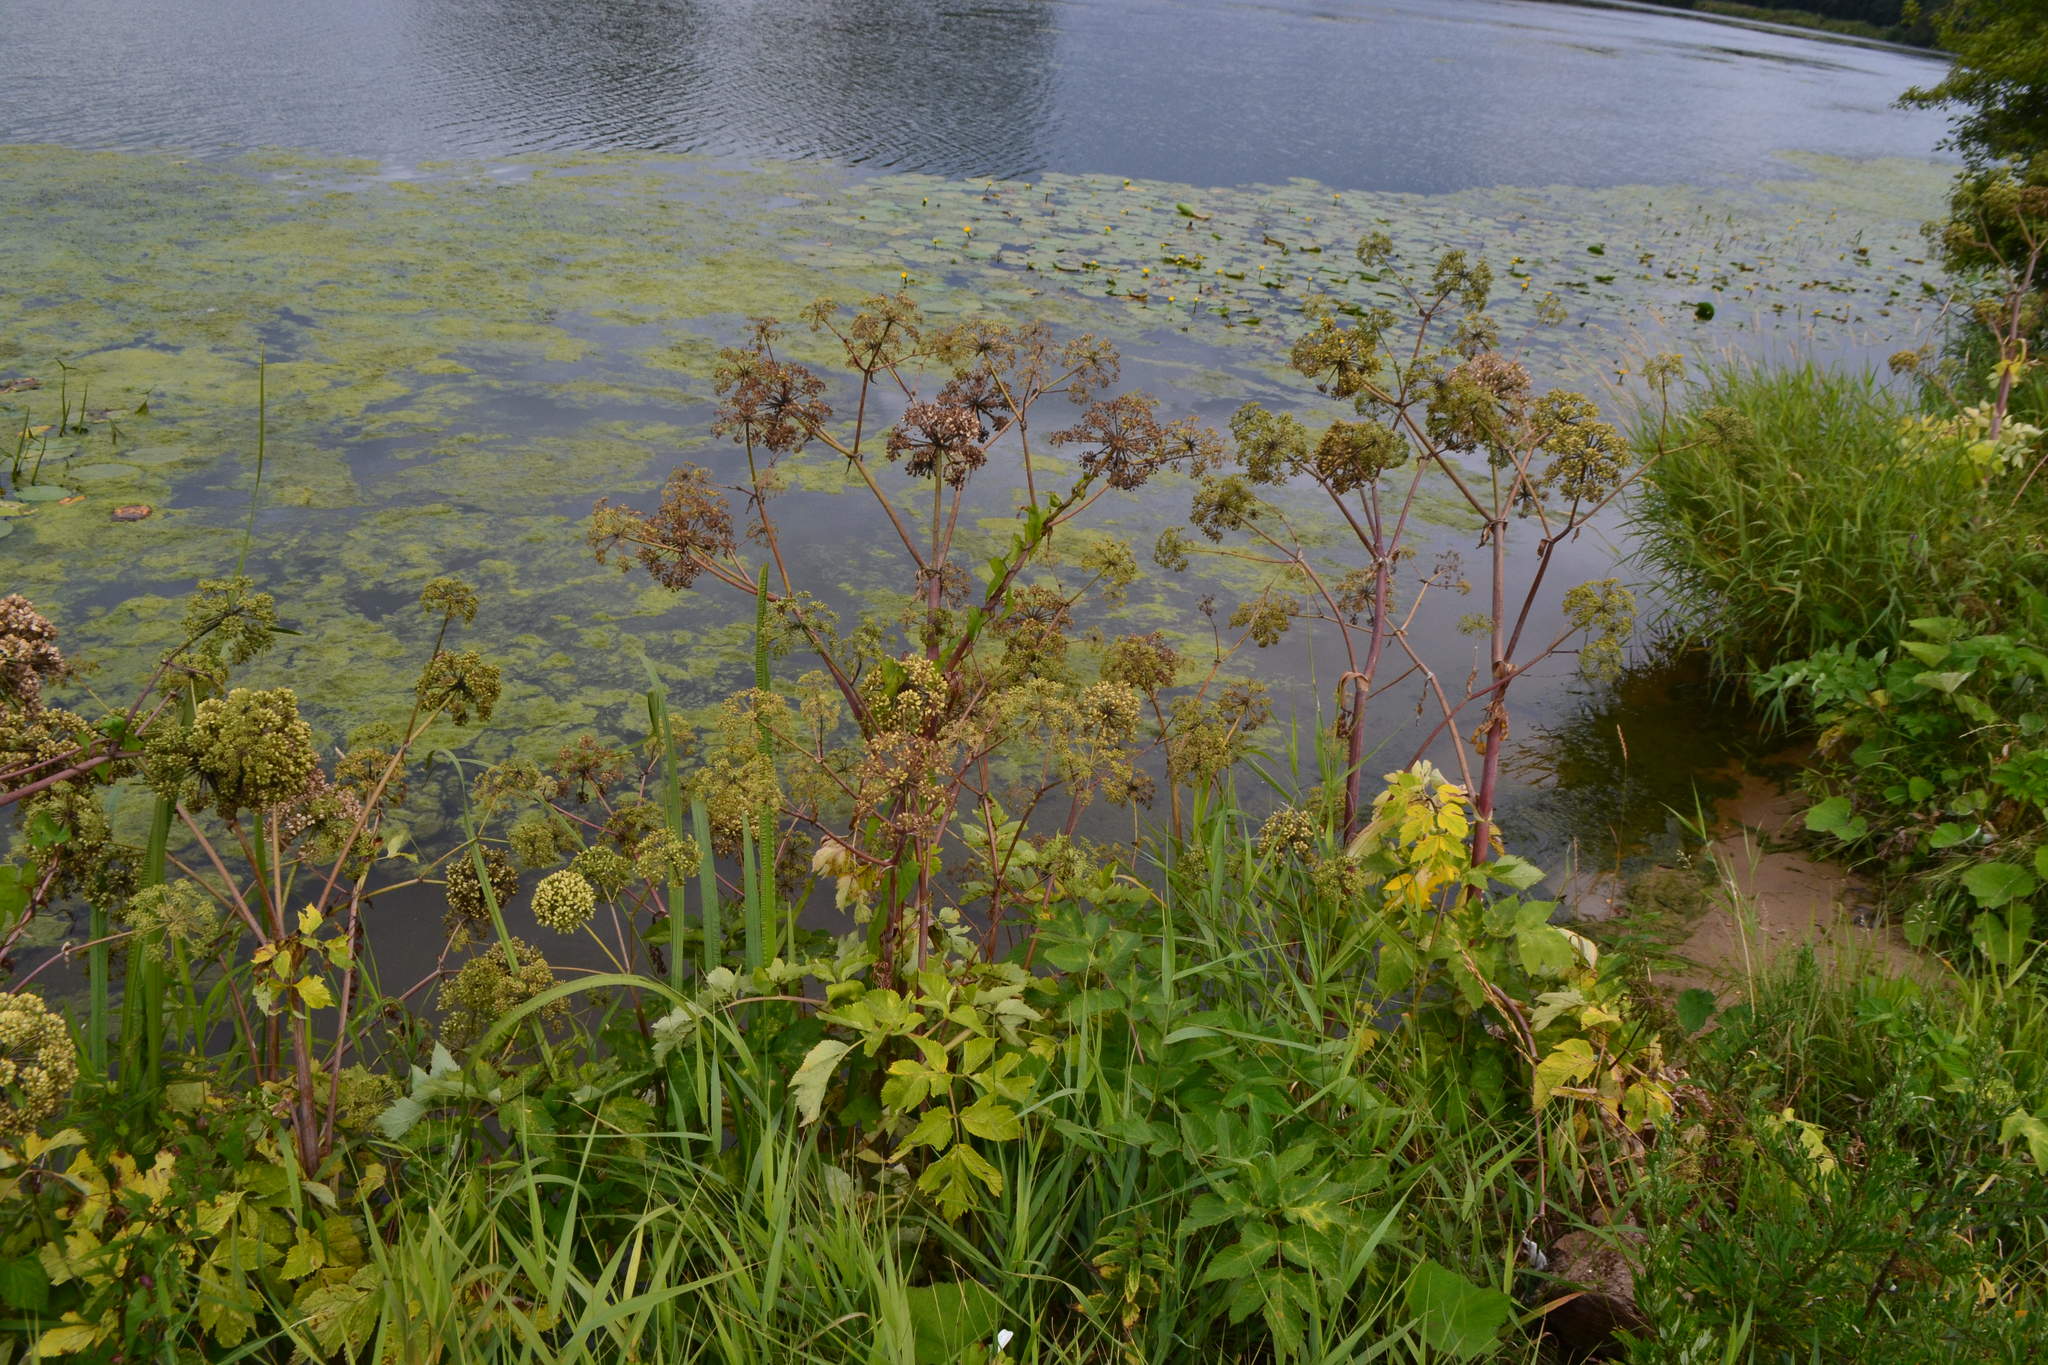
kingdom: Plantae
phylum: Tracheophyta
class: Magnoliopsida
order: Apiales
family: Apiaceae
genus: Angelica
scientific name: Angelica archangelica
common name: Garden angelica
